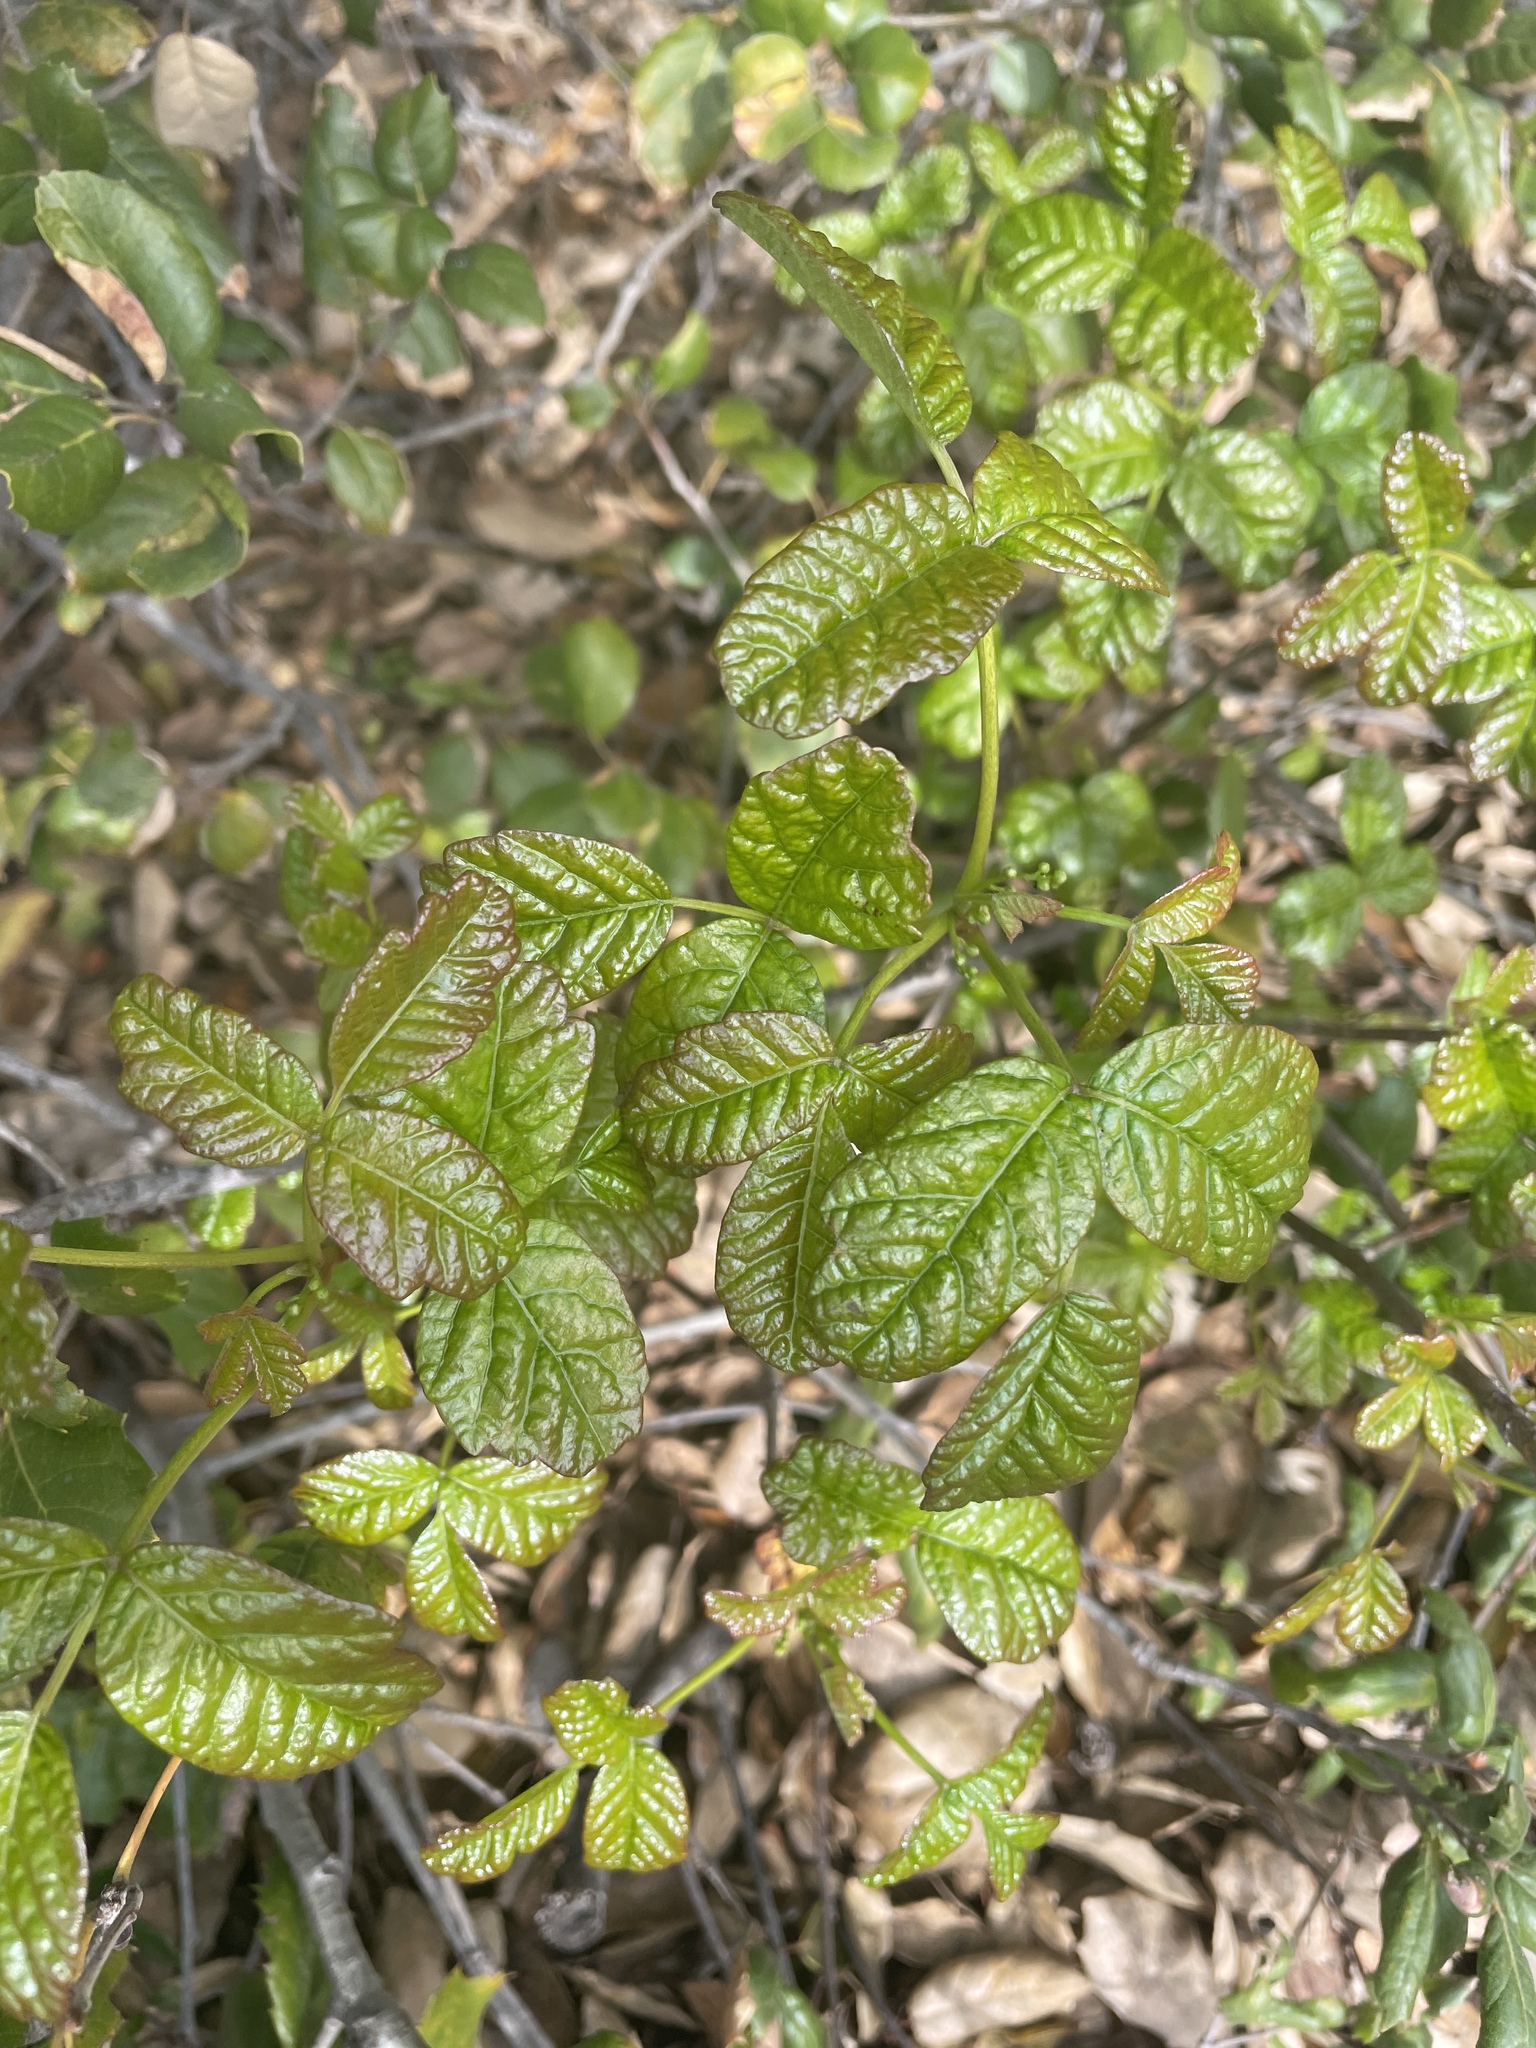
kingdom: Plantae
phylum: Tracheophyta
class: Magnoliopsida
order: Sapindales
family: Anacardiaceae
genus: Toxicodendron
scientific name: Toxicodendron diversilobum
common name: Pacific poison-oak
